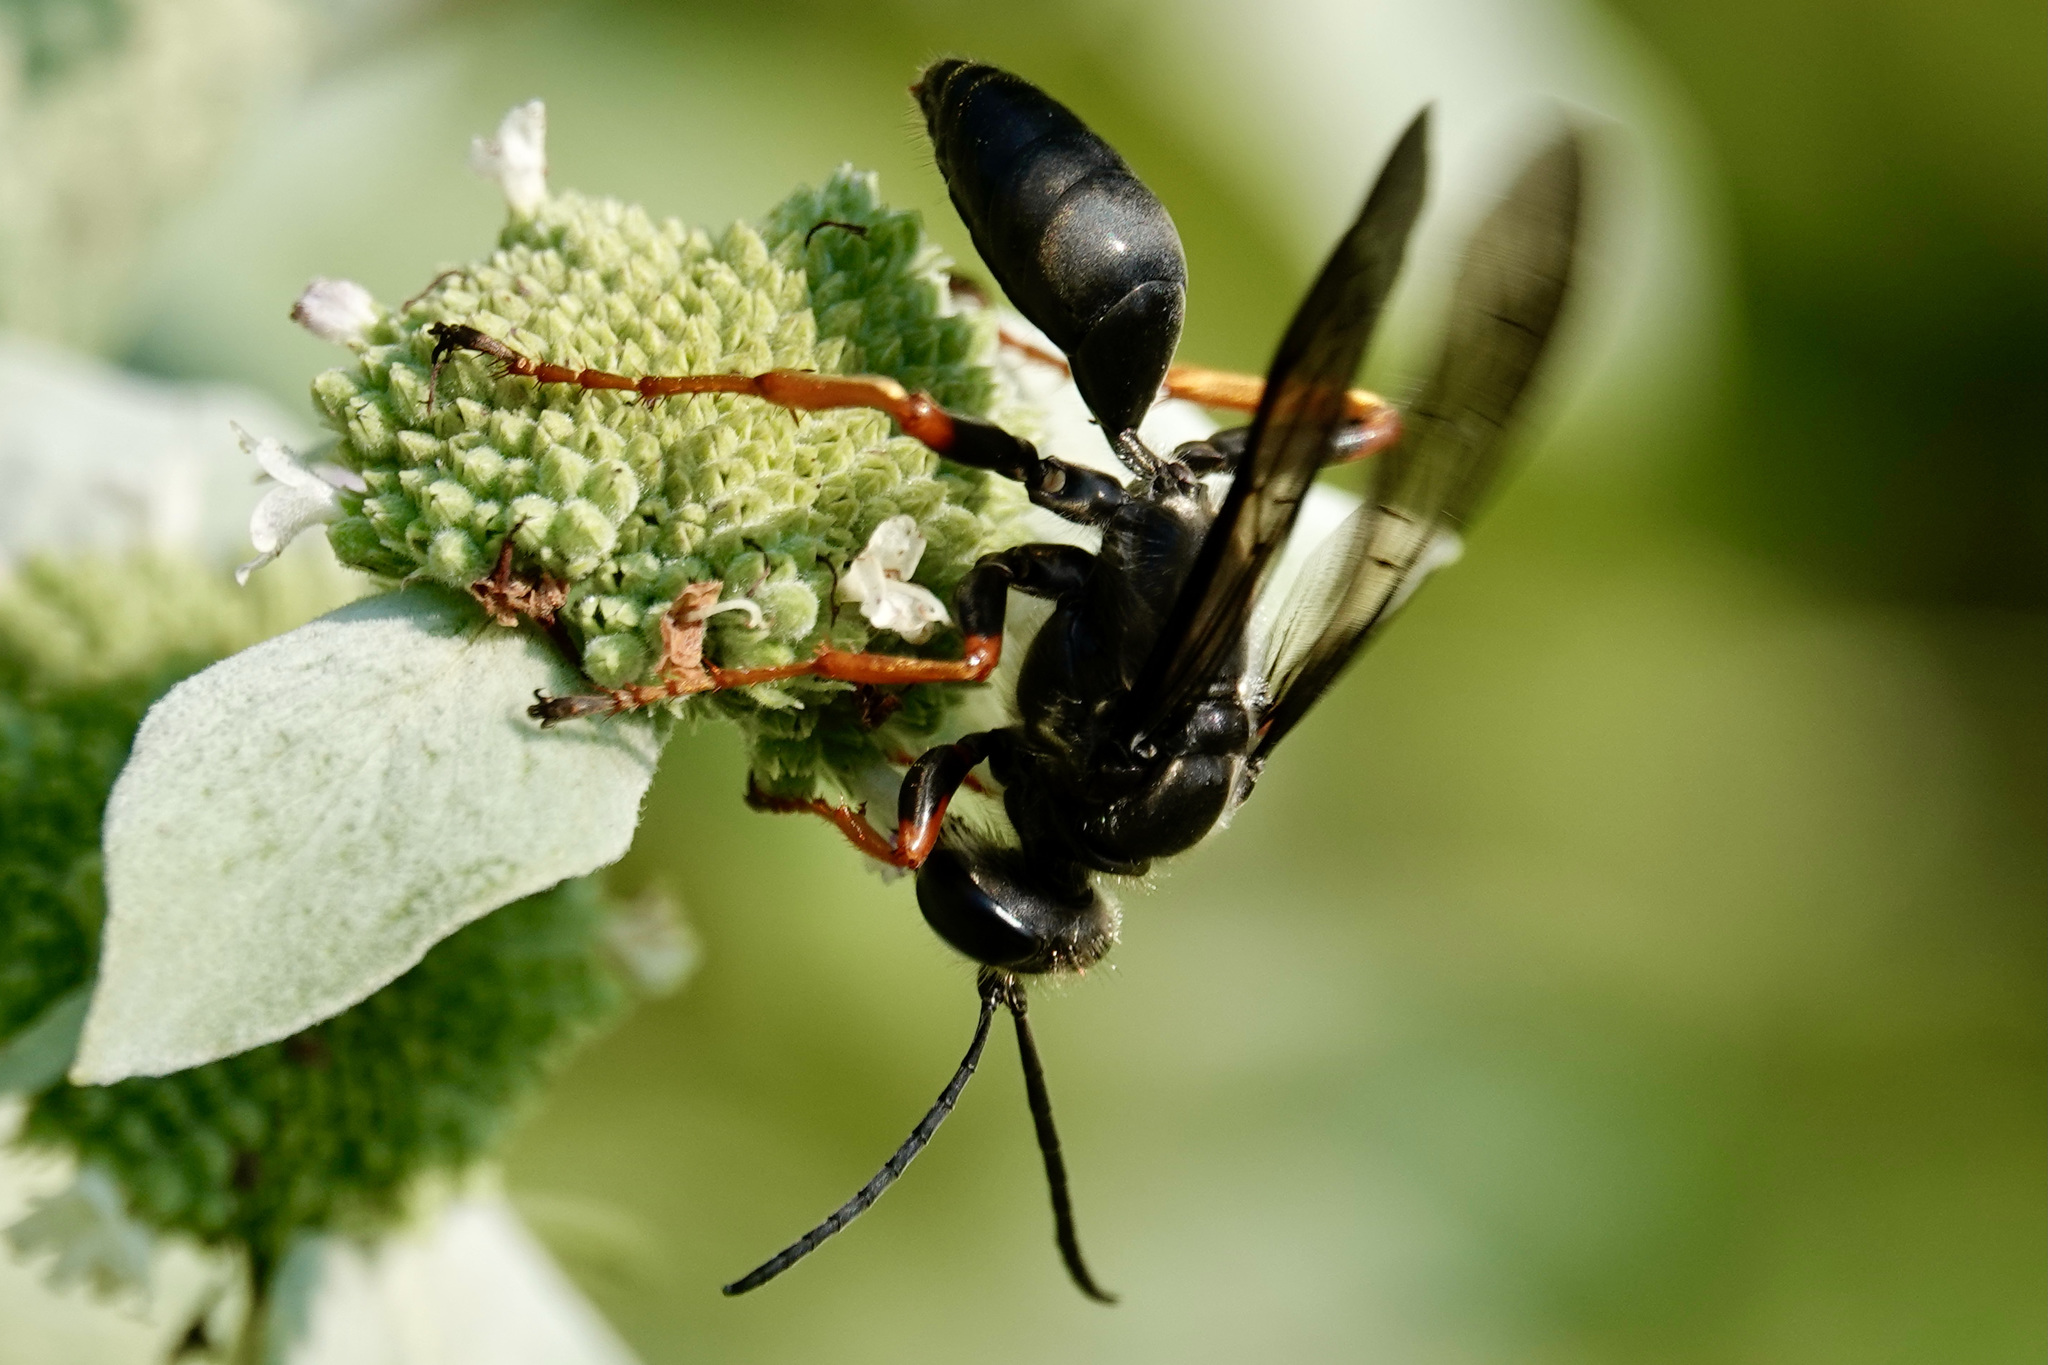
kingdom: Animalia
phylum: Arthropoda
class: Insecta
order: Hymenoptera
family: Sphecidae
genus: Sphex
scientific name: Sphex nudus
